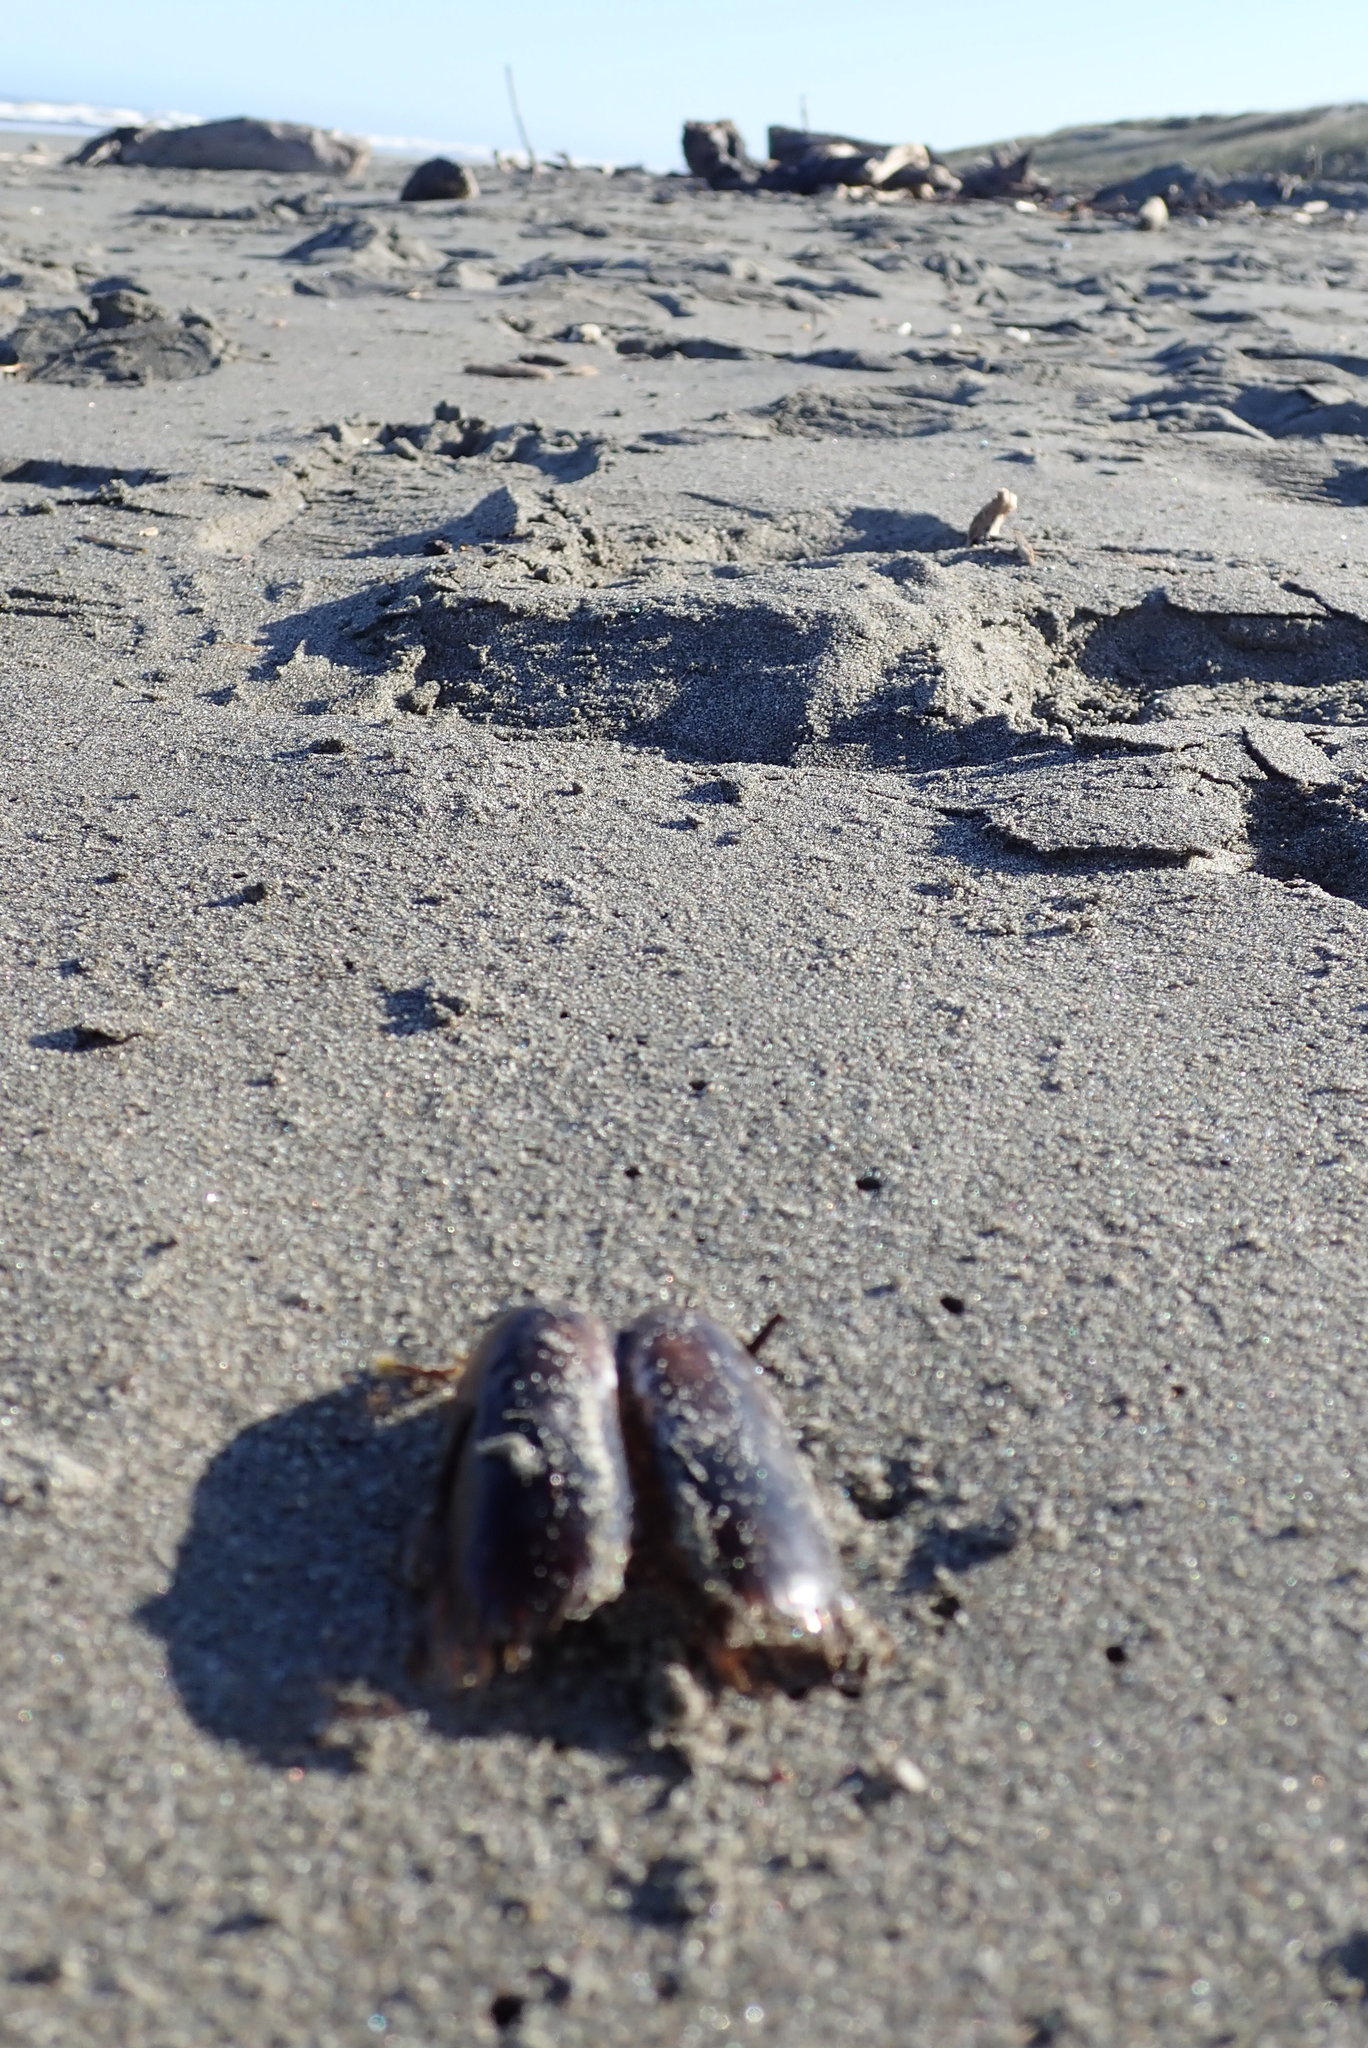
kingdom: Animalia
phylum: Mollusca
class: Bivalvia
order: Solemyida
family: Solemyidae
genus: Solemya
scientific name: Solemya parkinsonii
